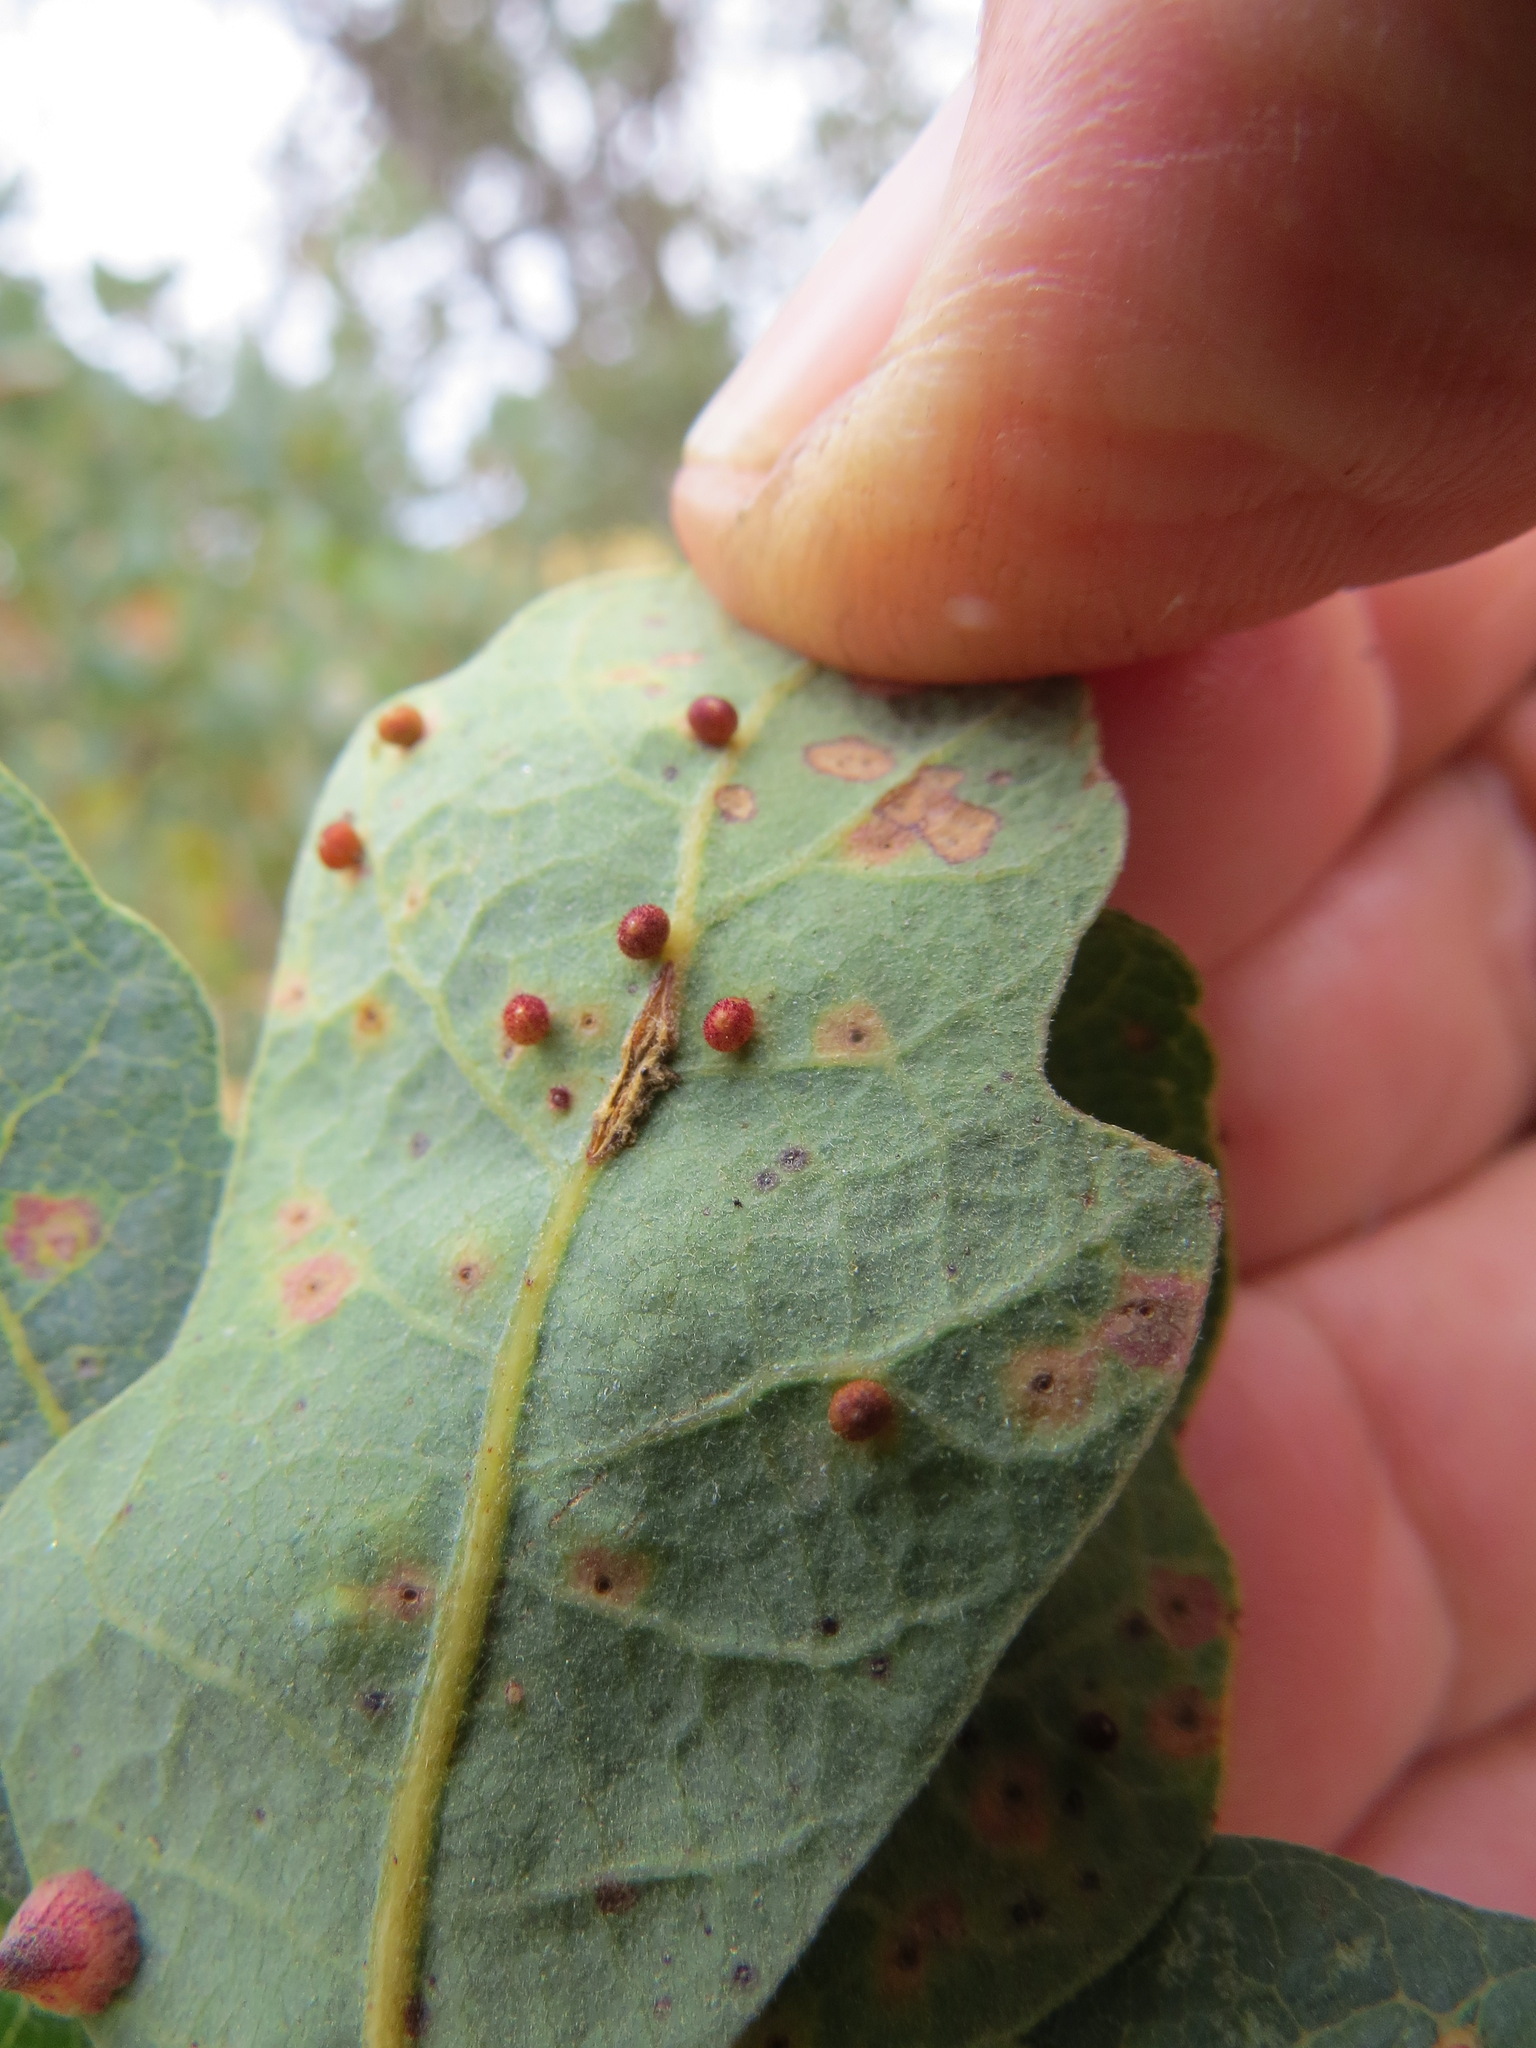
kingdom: Animalia
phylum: Arthropoda
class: Insecta
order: Hymenoptera
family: Cynipidae
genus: Neuroterus
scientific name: Neuroterus saltarius
